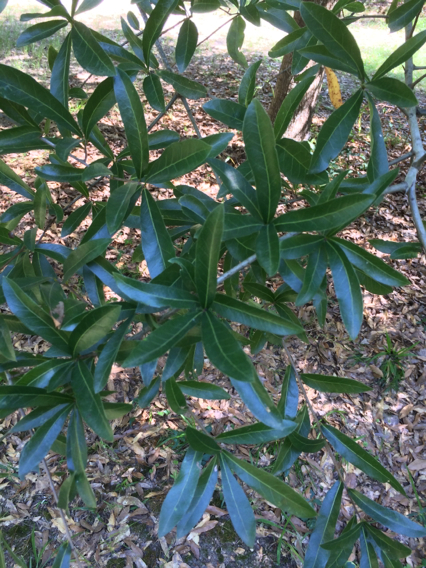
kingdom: Plantae
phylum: Tracheophyta
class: Magnoliopsida
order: Fagales
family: Fagaceae
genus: Quercus
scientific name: Quercus phellos
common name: Willow oak
